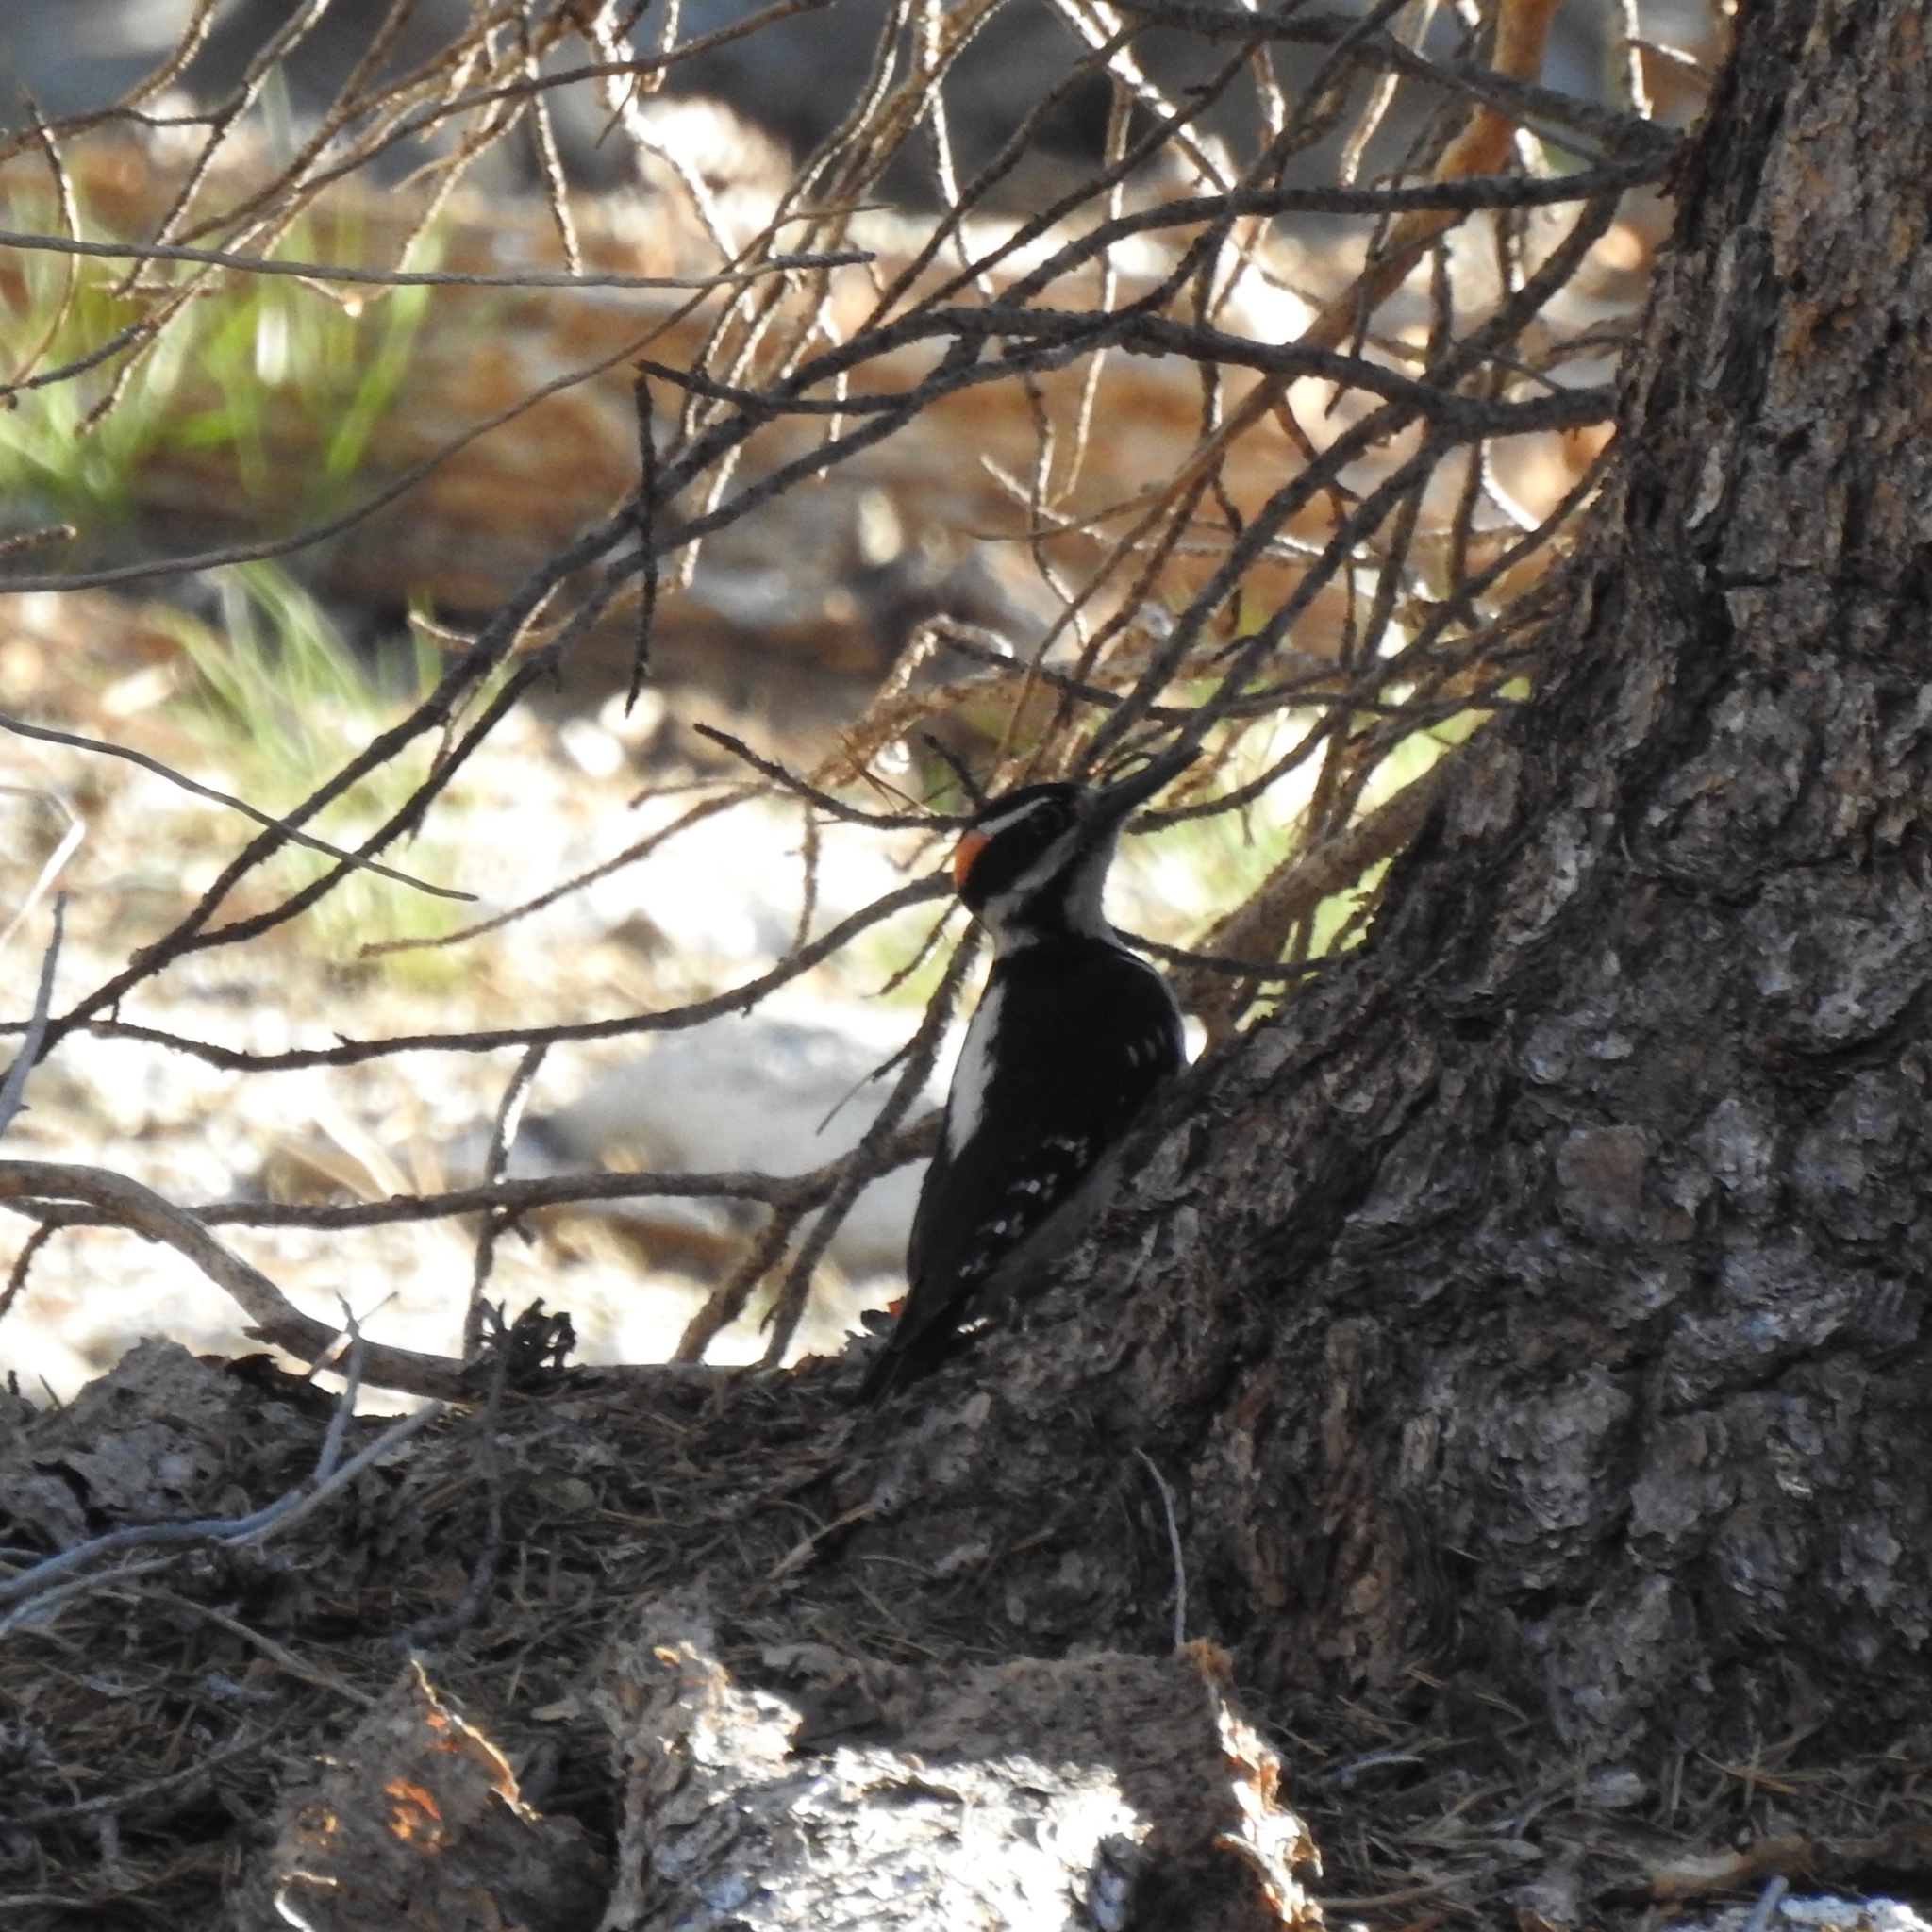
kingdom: Animalia
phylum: Chordata
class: Aves
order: Piciformes
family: Picidae
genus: Leuconotopicus
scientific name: Leuconotopicus villosus
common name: Hairy woodpecker
